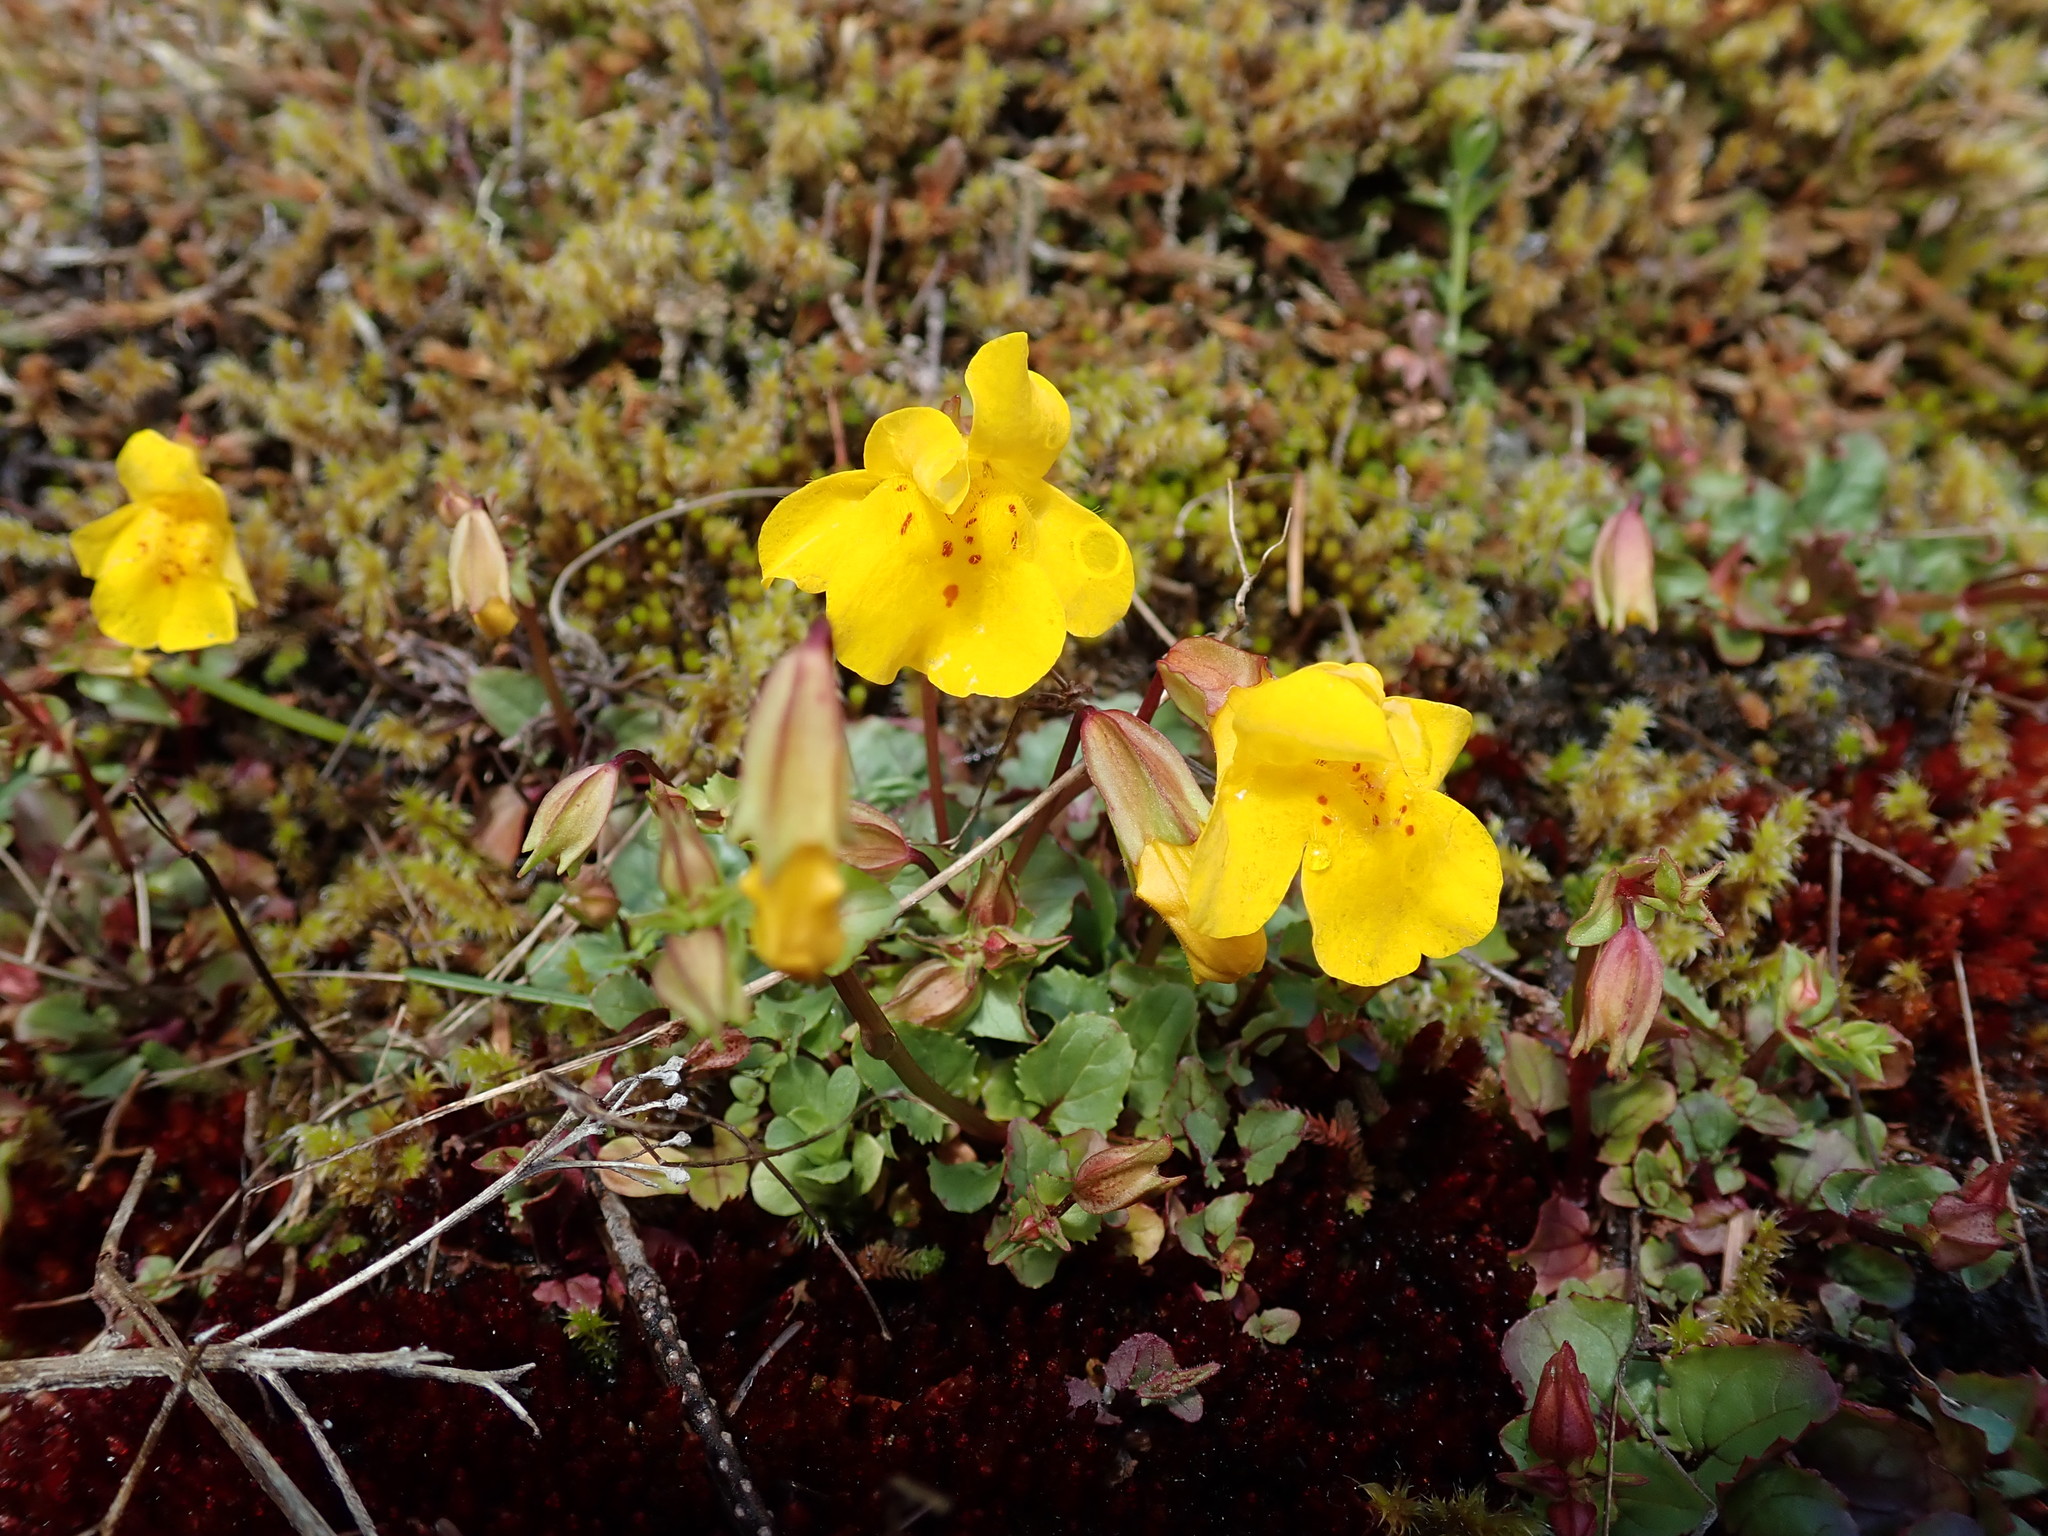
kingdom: Plantae
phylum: Tracheophyta
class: Magnoliopsida
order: Lamiales
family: Phrymaceae
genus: Erythranthe
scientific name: Erythranthe guttata
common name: Monkeyflower
